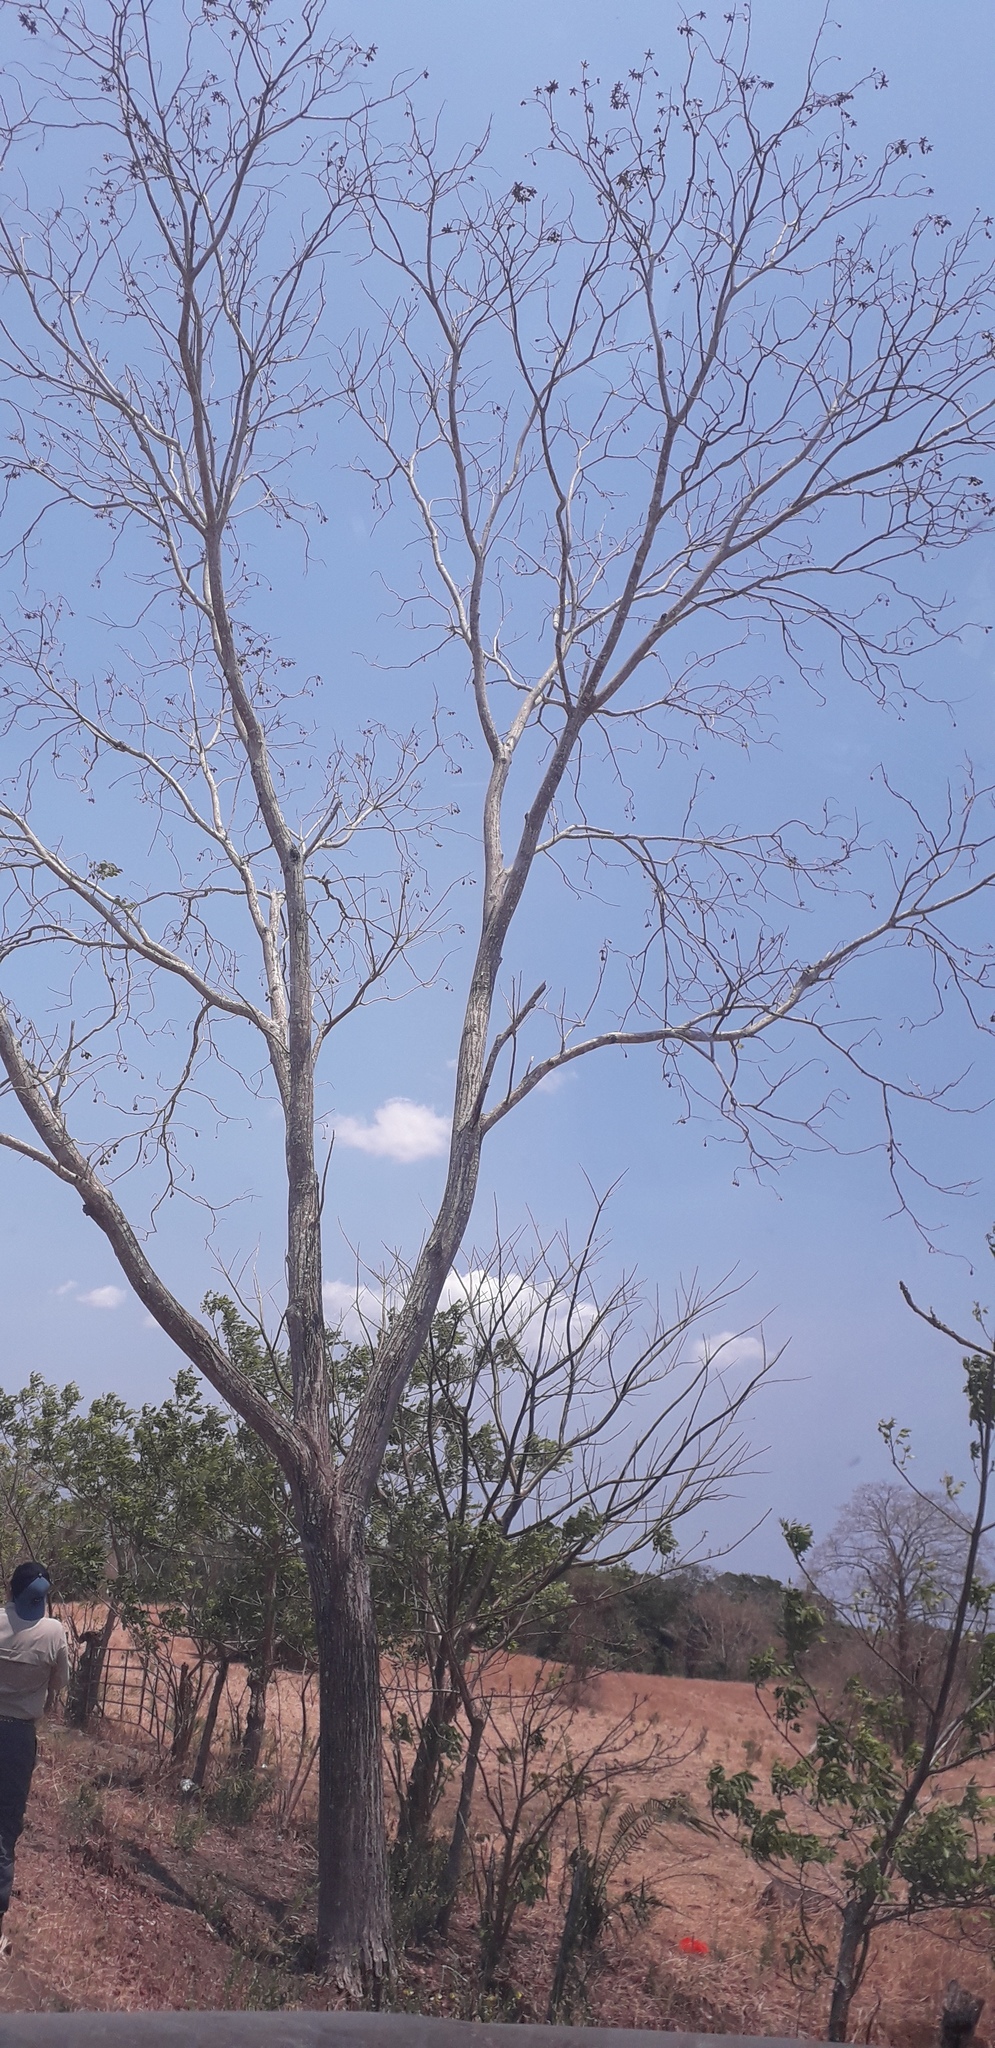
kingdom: Plantae
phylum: Tracheophyta
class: Magnoliopsida
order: Sapindales
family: Meliaceae
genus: Cedrela
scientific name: Cedrela odorata
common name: Red cedar
